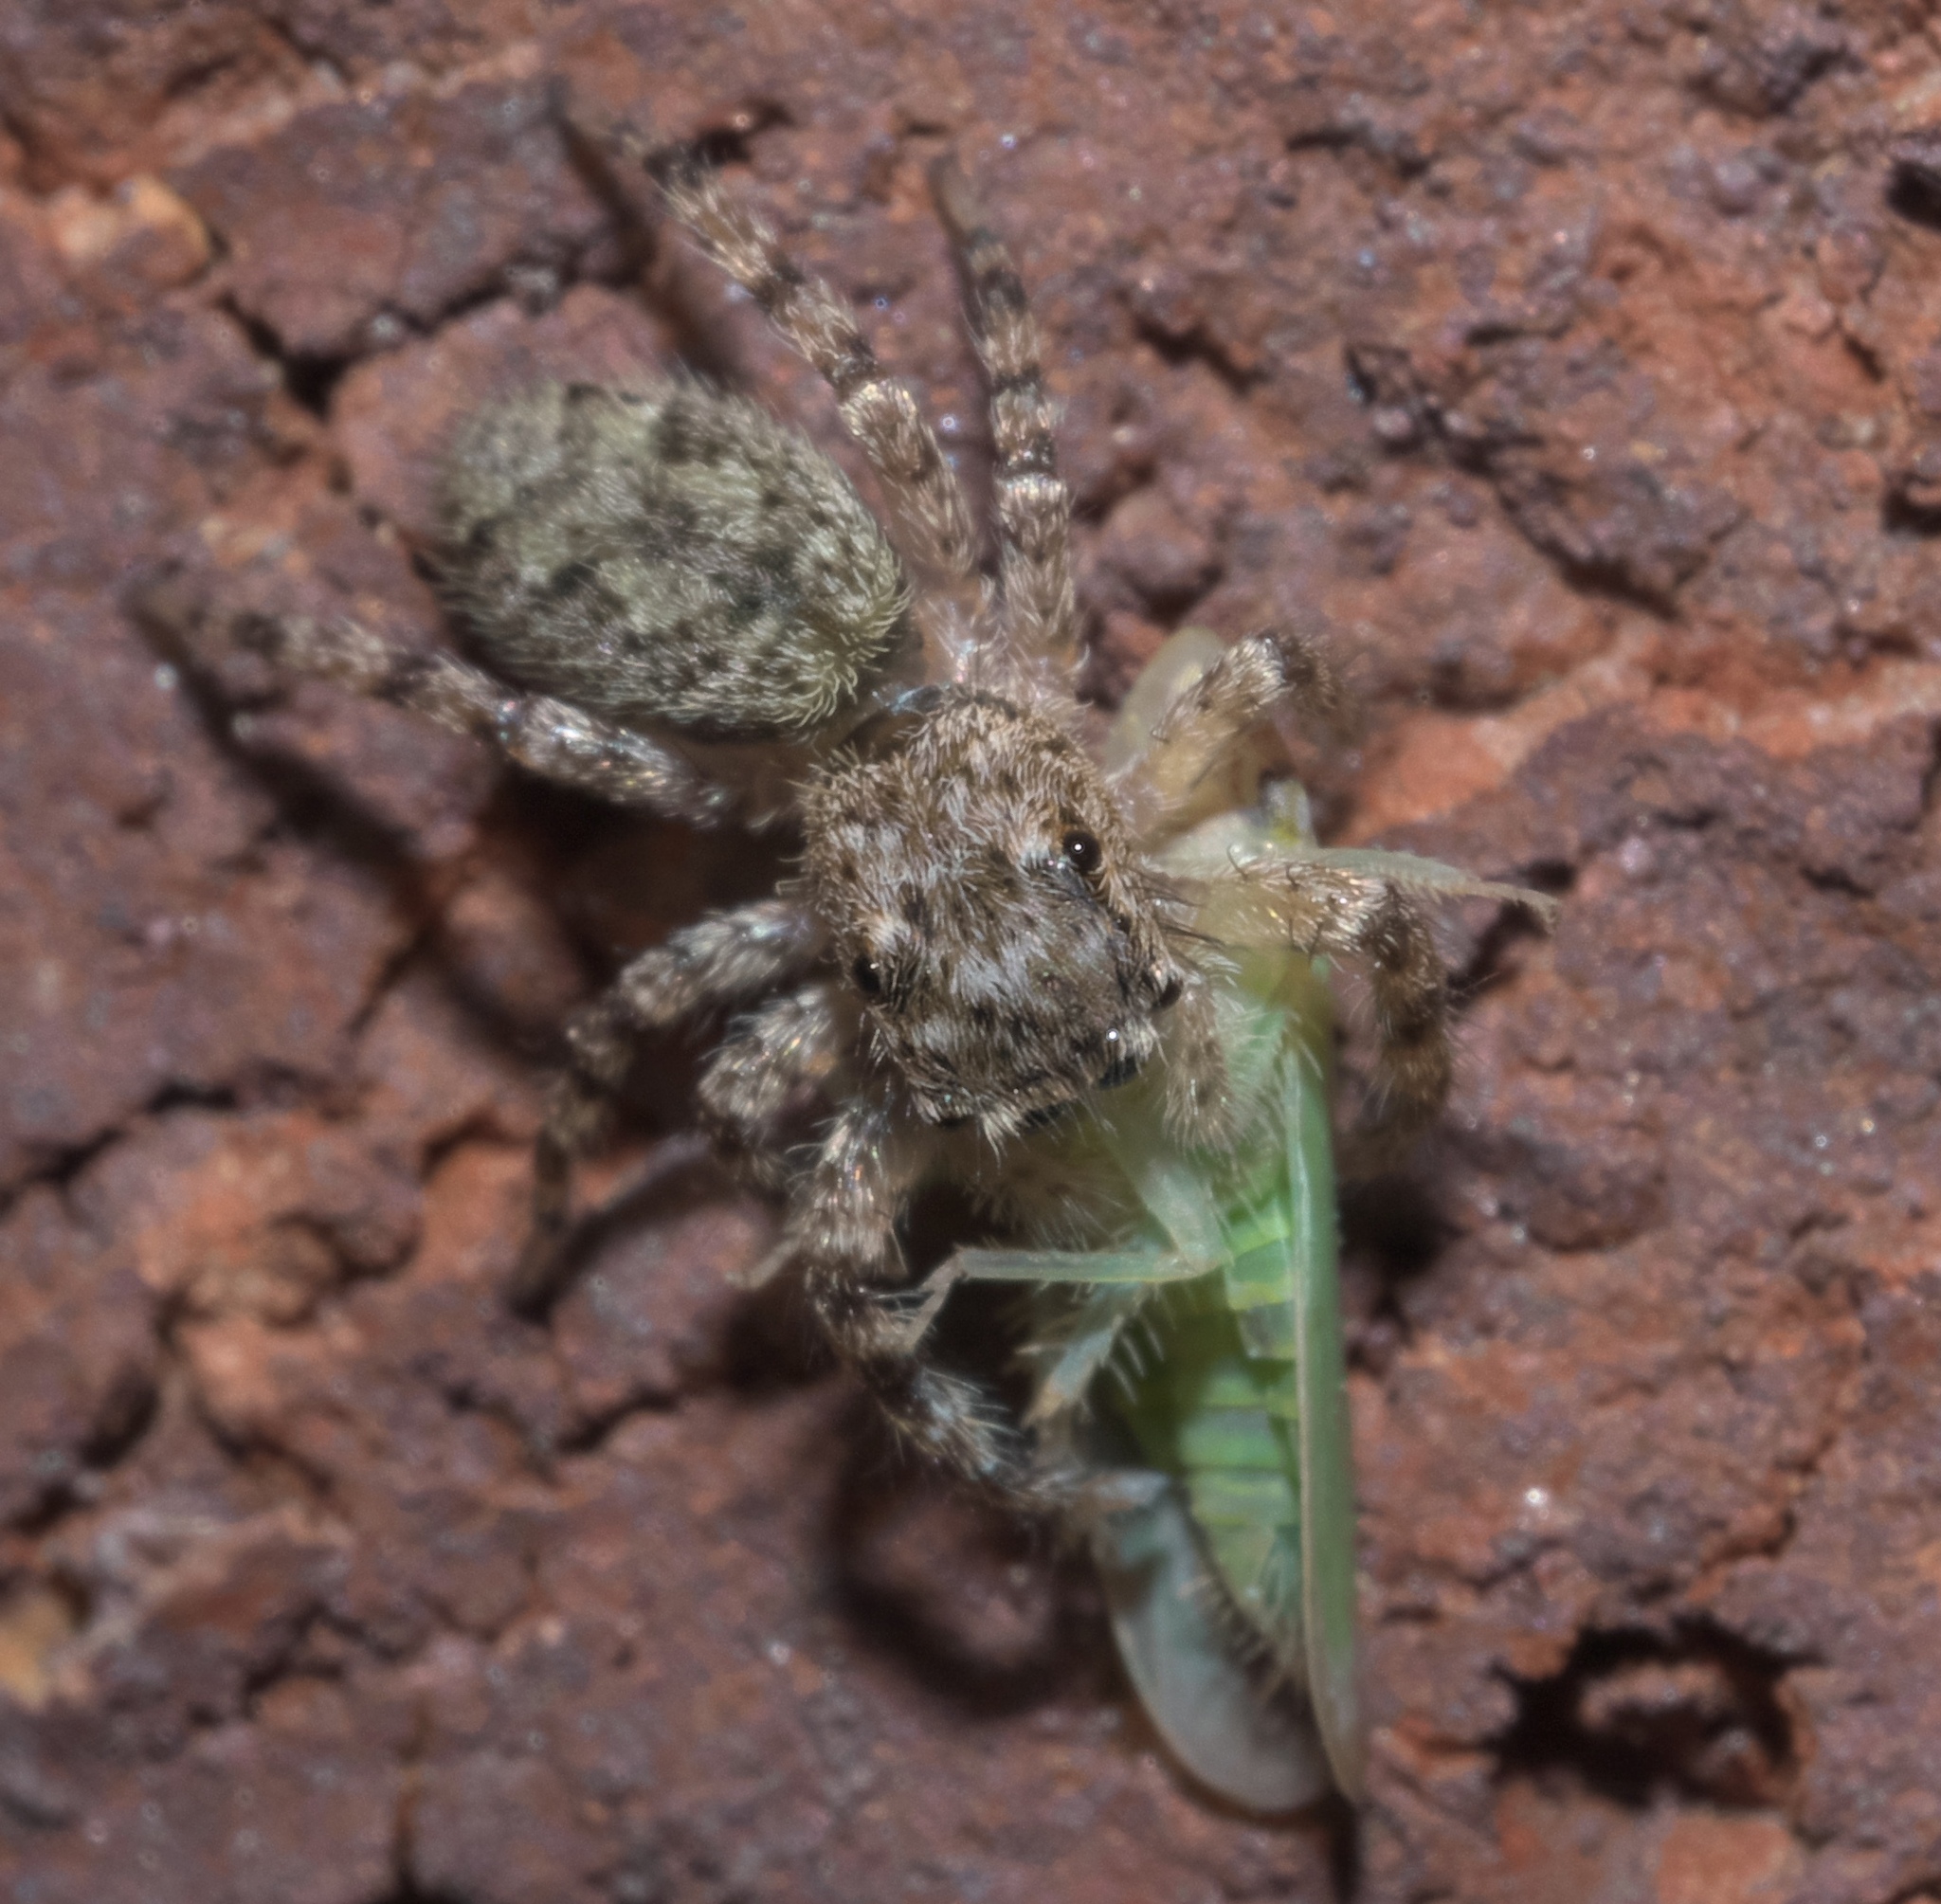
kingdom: Animalia
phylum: Arthropoda
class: Arachnida
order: Araneae
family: Salticidae
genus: Platycryptus
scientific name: Platycryptus undatus
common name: Tan jumping spider
